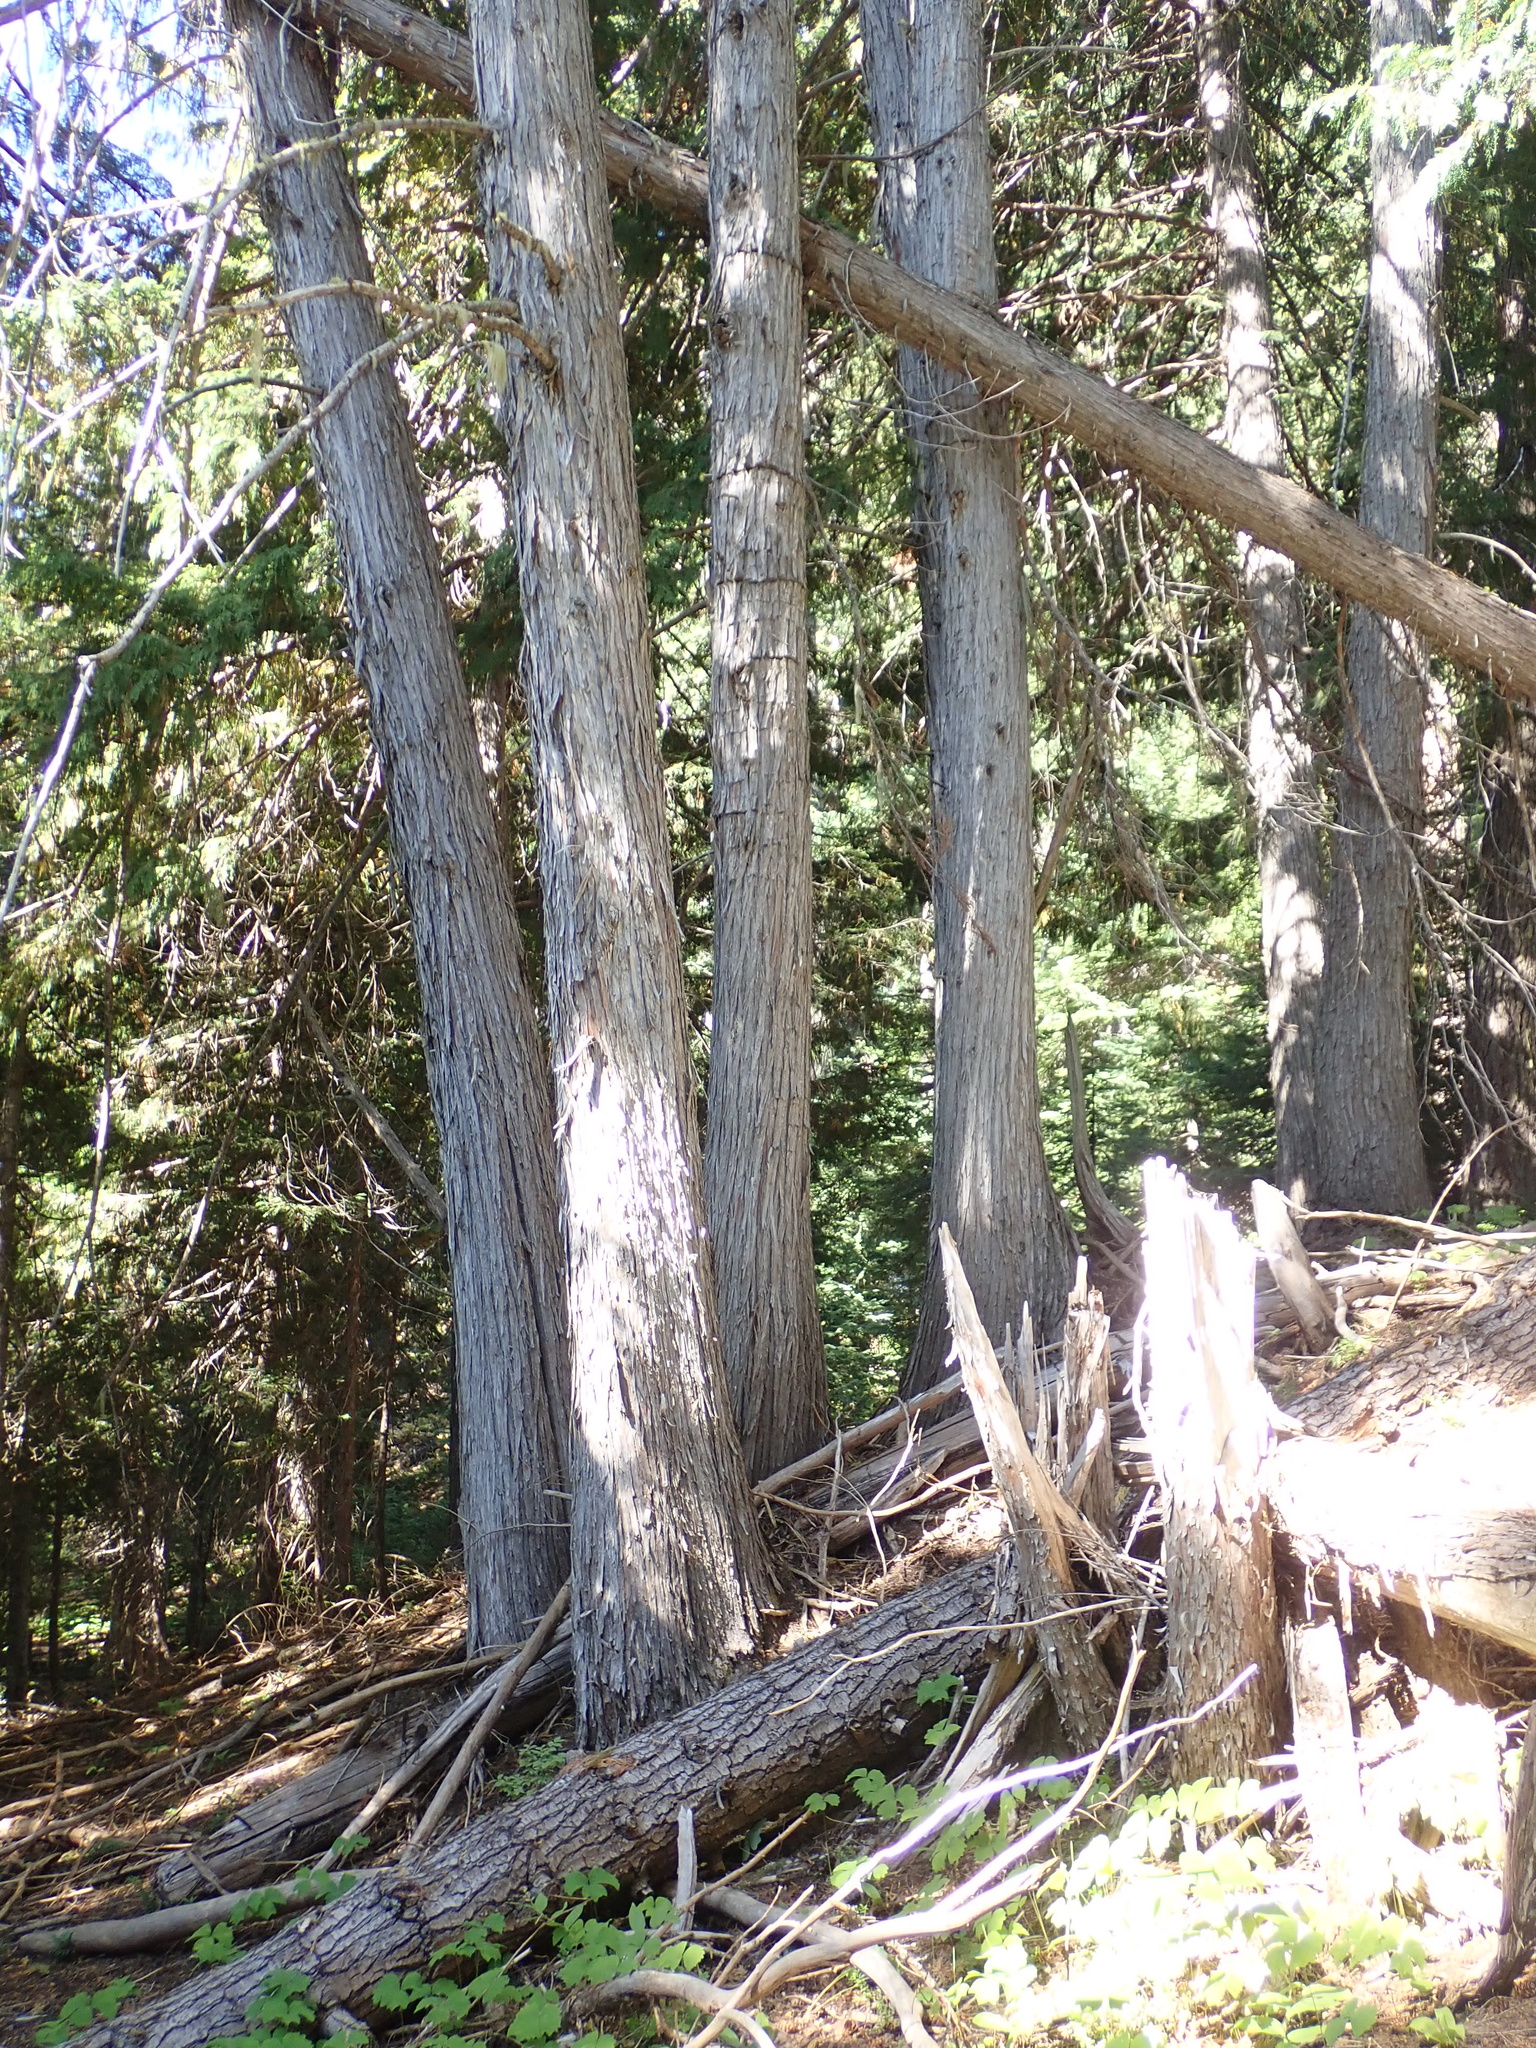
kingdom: Plantae
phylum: Tracheophyta
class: Pinopsida
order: Pinales
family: Cupressaceae
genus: Xanthocyparis
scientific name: Xanthocyparis nootkatensis
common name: Nootka cypress
